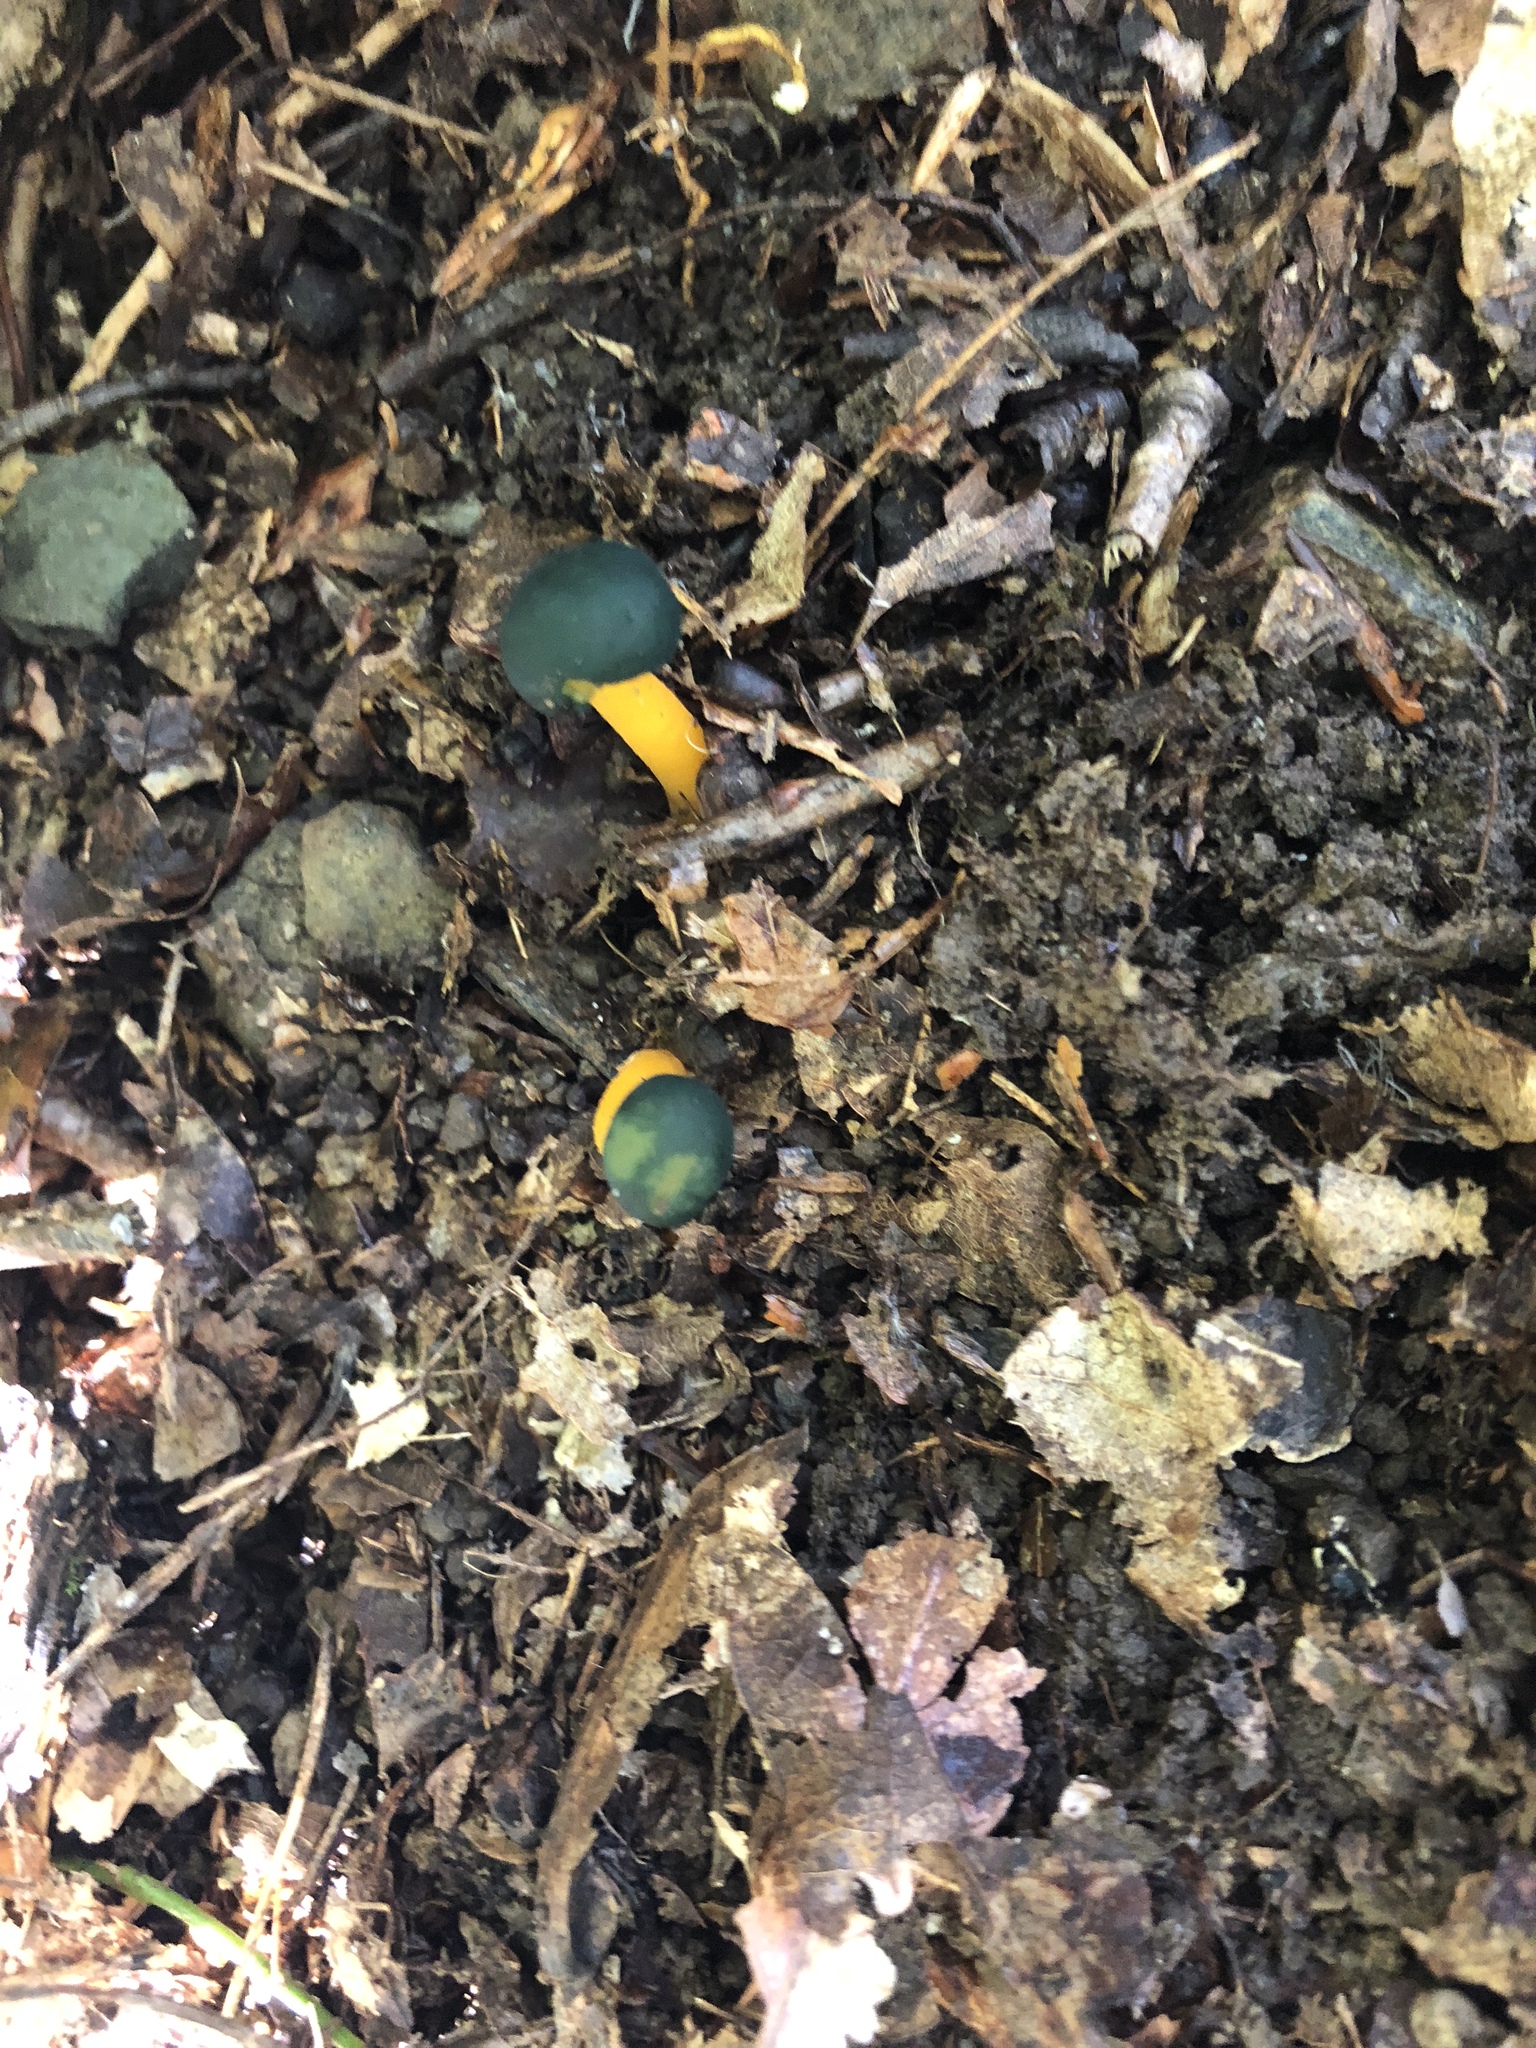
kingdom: Fungi
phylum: Ascomycota
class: Leotiomycetes
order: Leotiales
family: Leotiaceae
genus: Leotia
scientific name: Leotia lubrica
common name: Jellybaby
